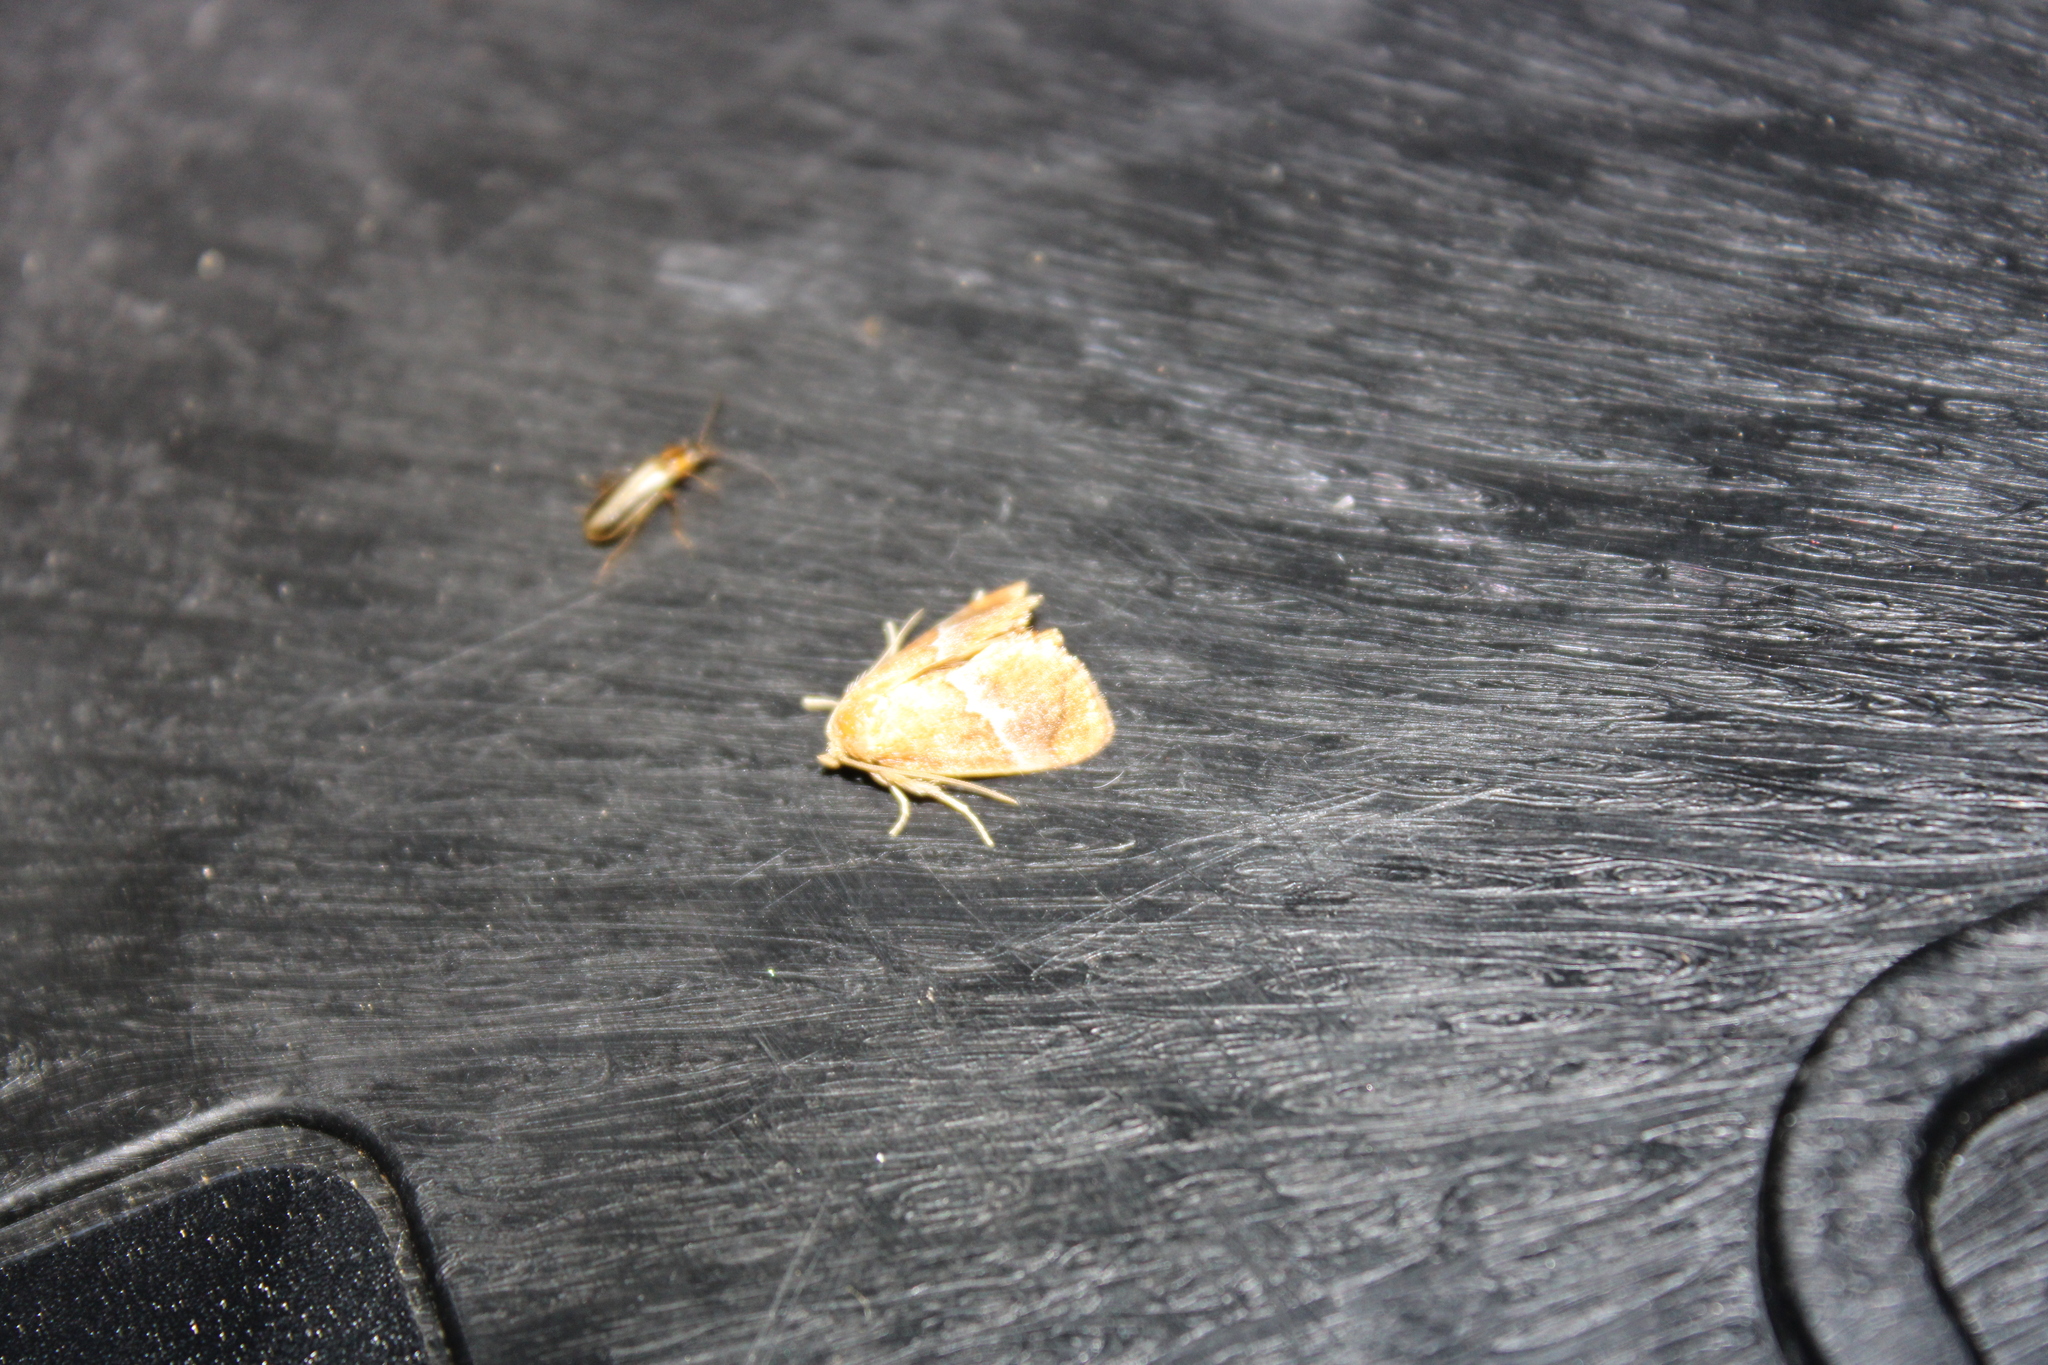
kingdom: Animalia
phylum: Arthropoda
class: Insecta
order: Lepidoptera
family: Limacodidae
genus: Lithacodes
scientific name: Lithacodes fasciola
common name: Yellow-shouldered slug moth
